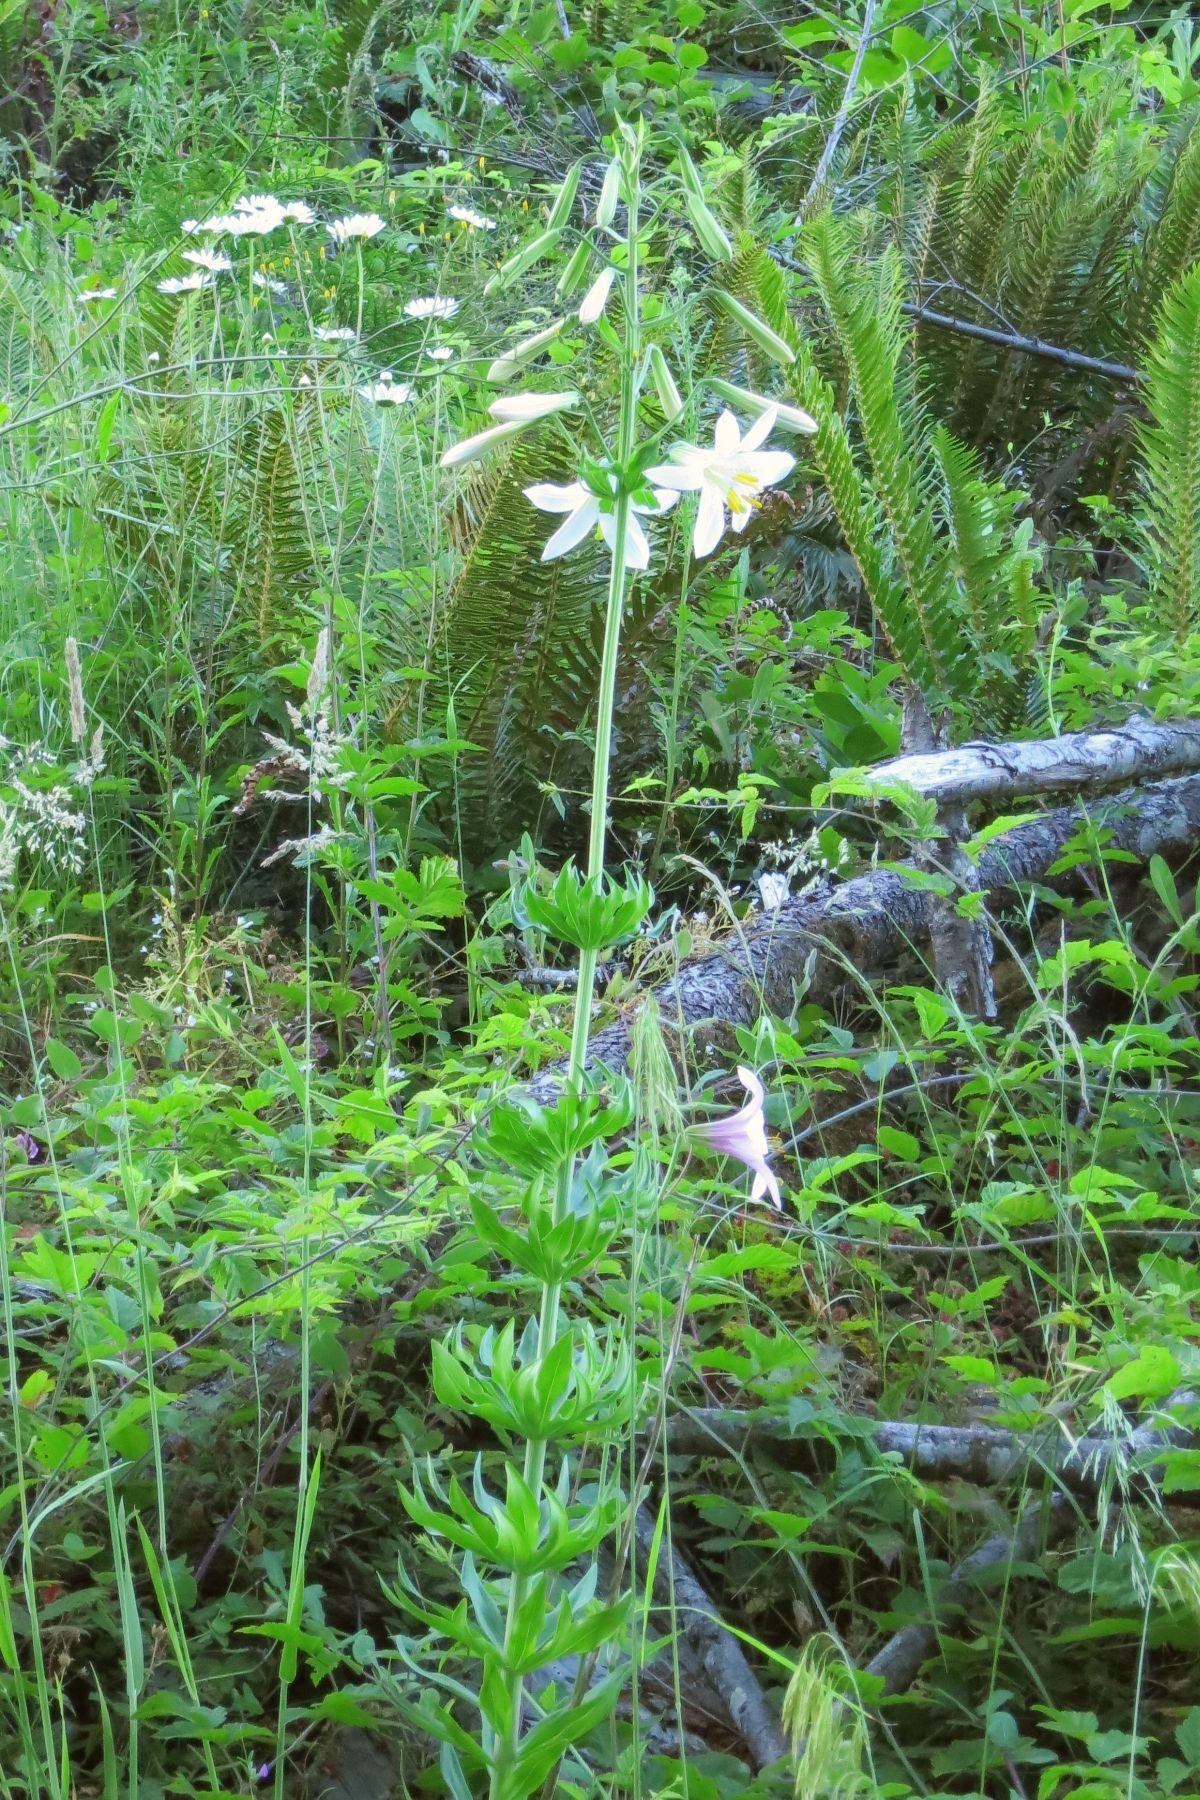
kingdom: Plantae
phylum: Tracheophyta
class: Liliopsida
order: Liliales
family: Liliaceae
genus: Lilium
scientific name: Lilium washingtonianum
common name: Washington lily
